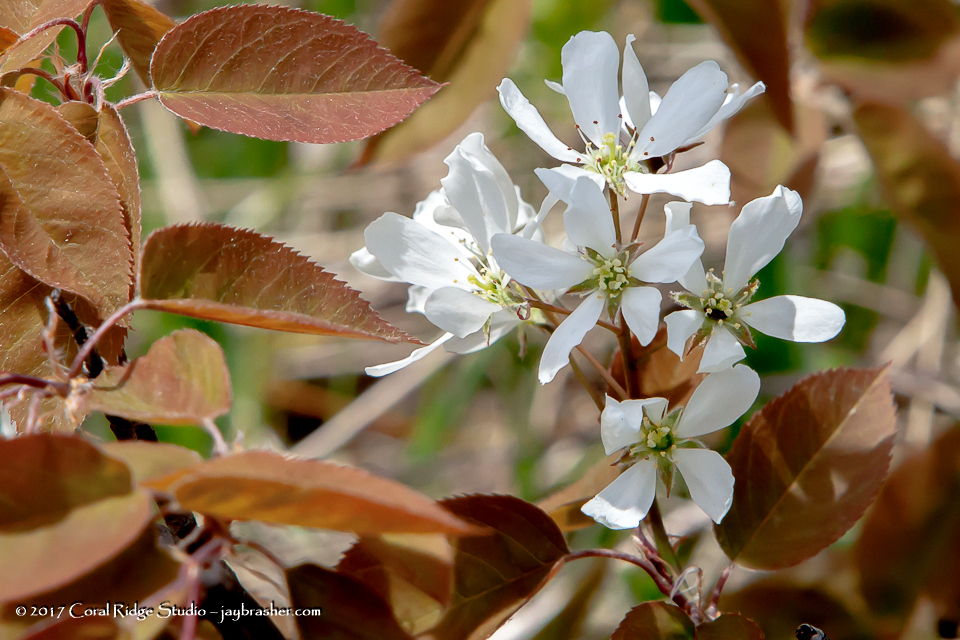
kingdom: Plantae
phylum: Tracheophyta
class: Magnoliopsida
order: Rosales
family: Rosaceae
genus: Amelanchier
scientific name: Amelanchier arborea
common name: Downy serviceberry
